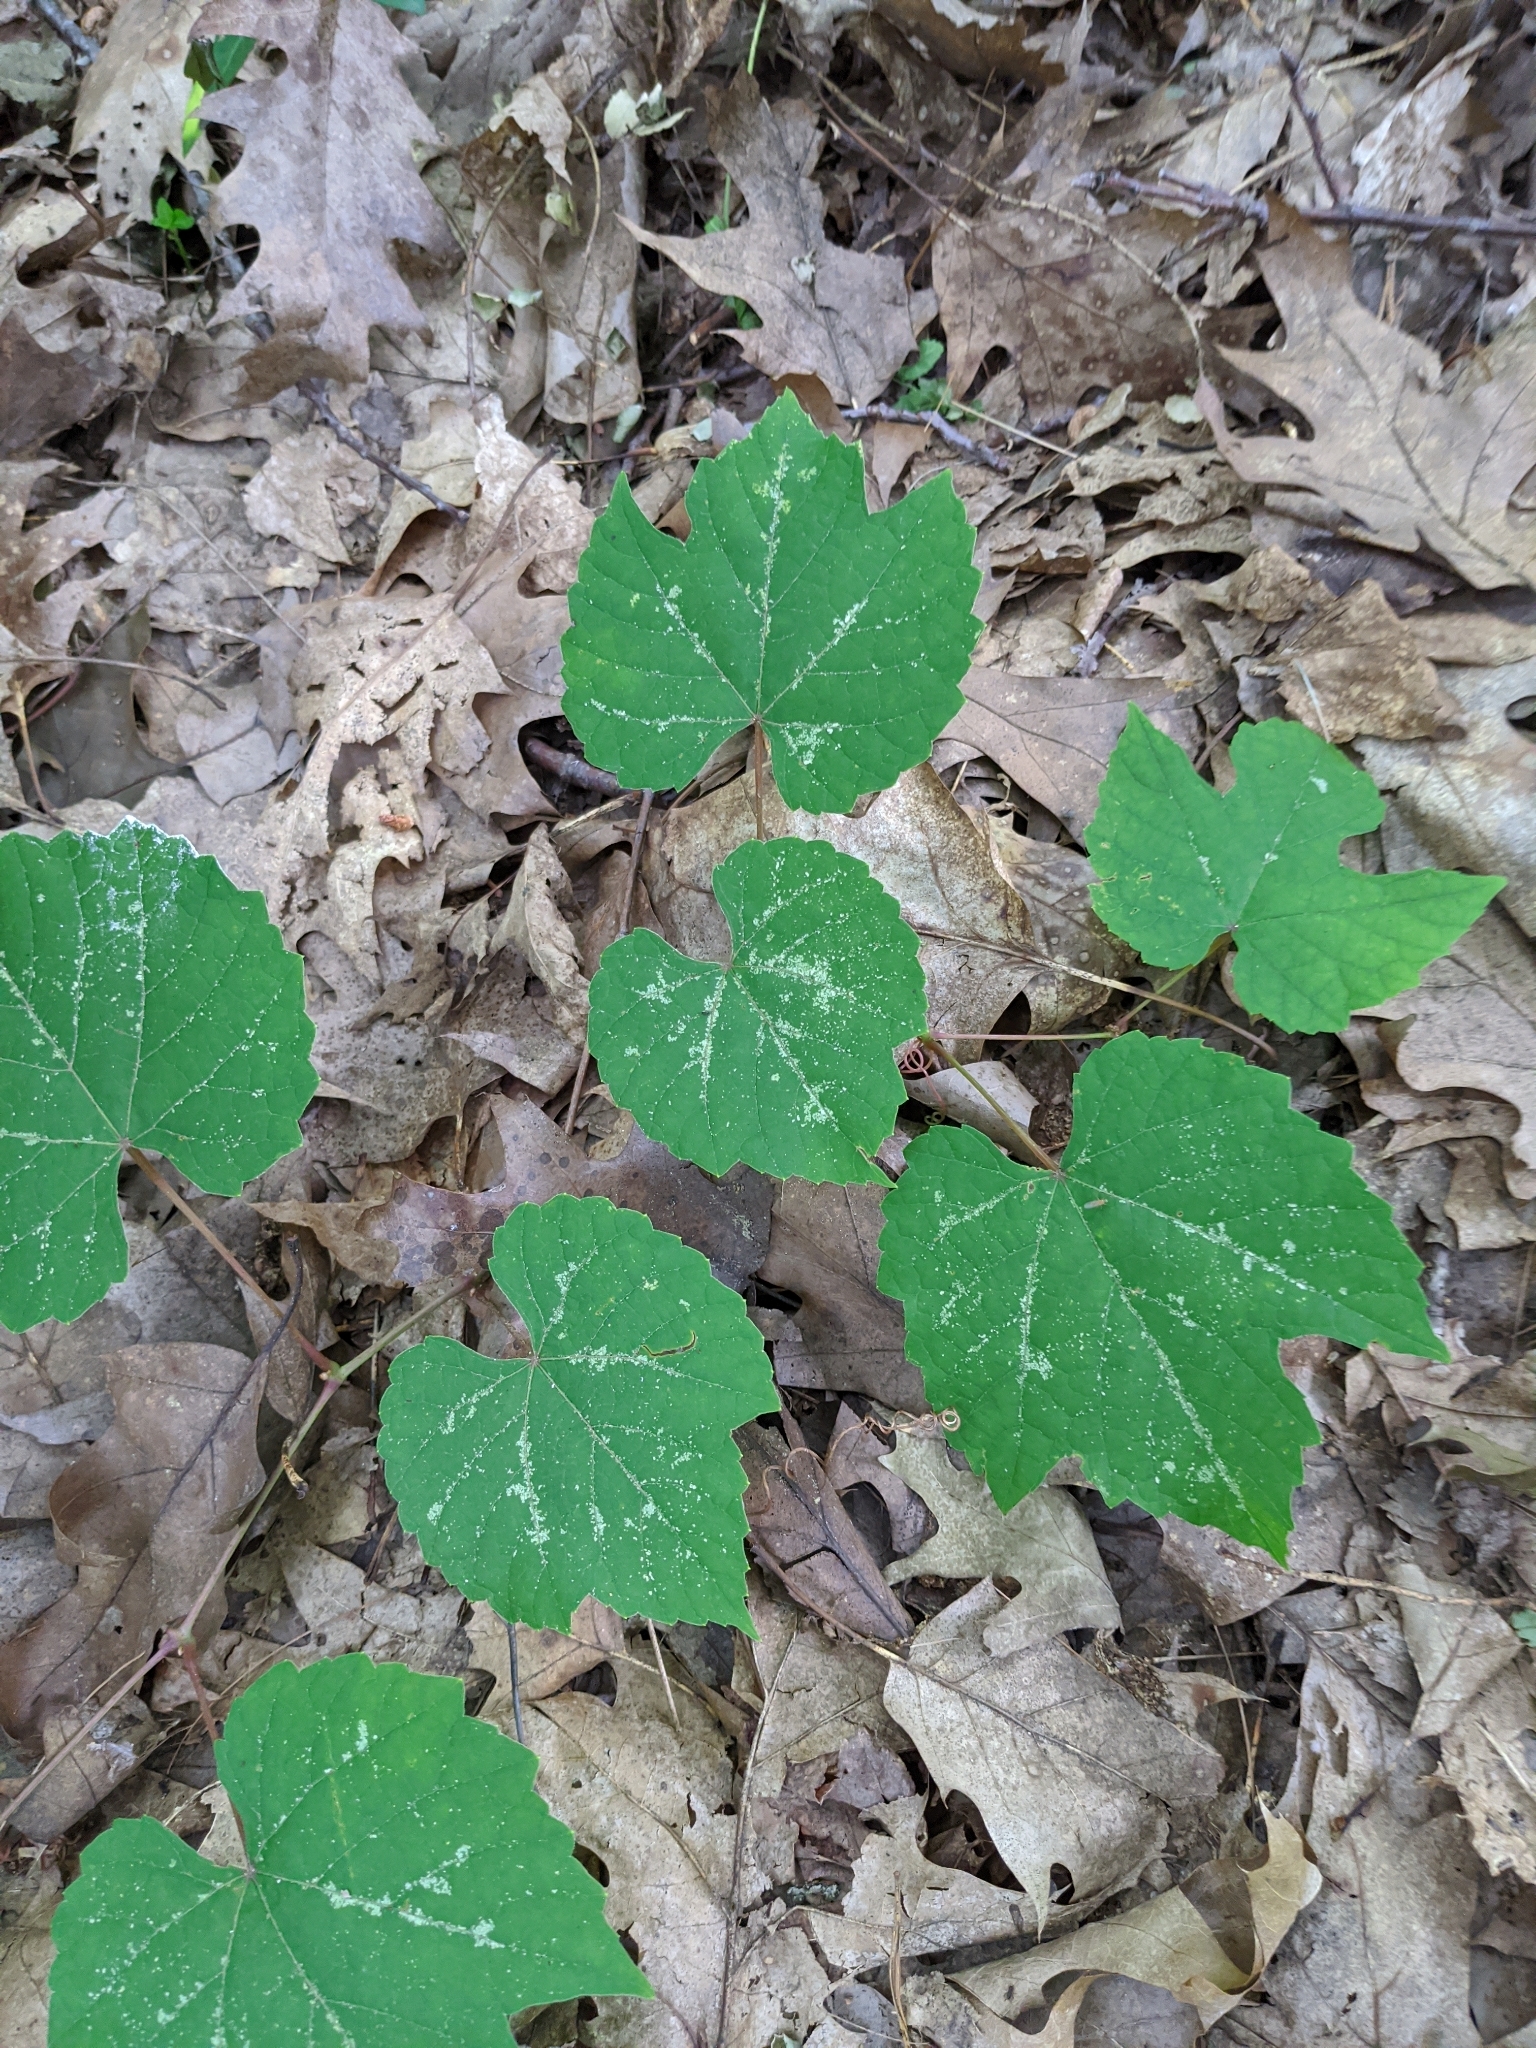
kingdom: Plantae
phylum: Tracheophyta
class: Magnoliopsida
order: Vitales
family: Vitaceae
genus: Vitis
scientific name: Vitis aestivalis
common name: Pigeon grape
